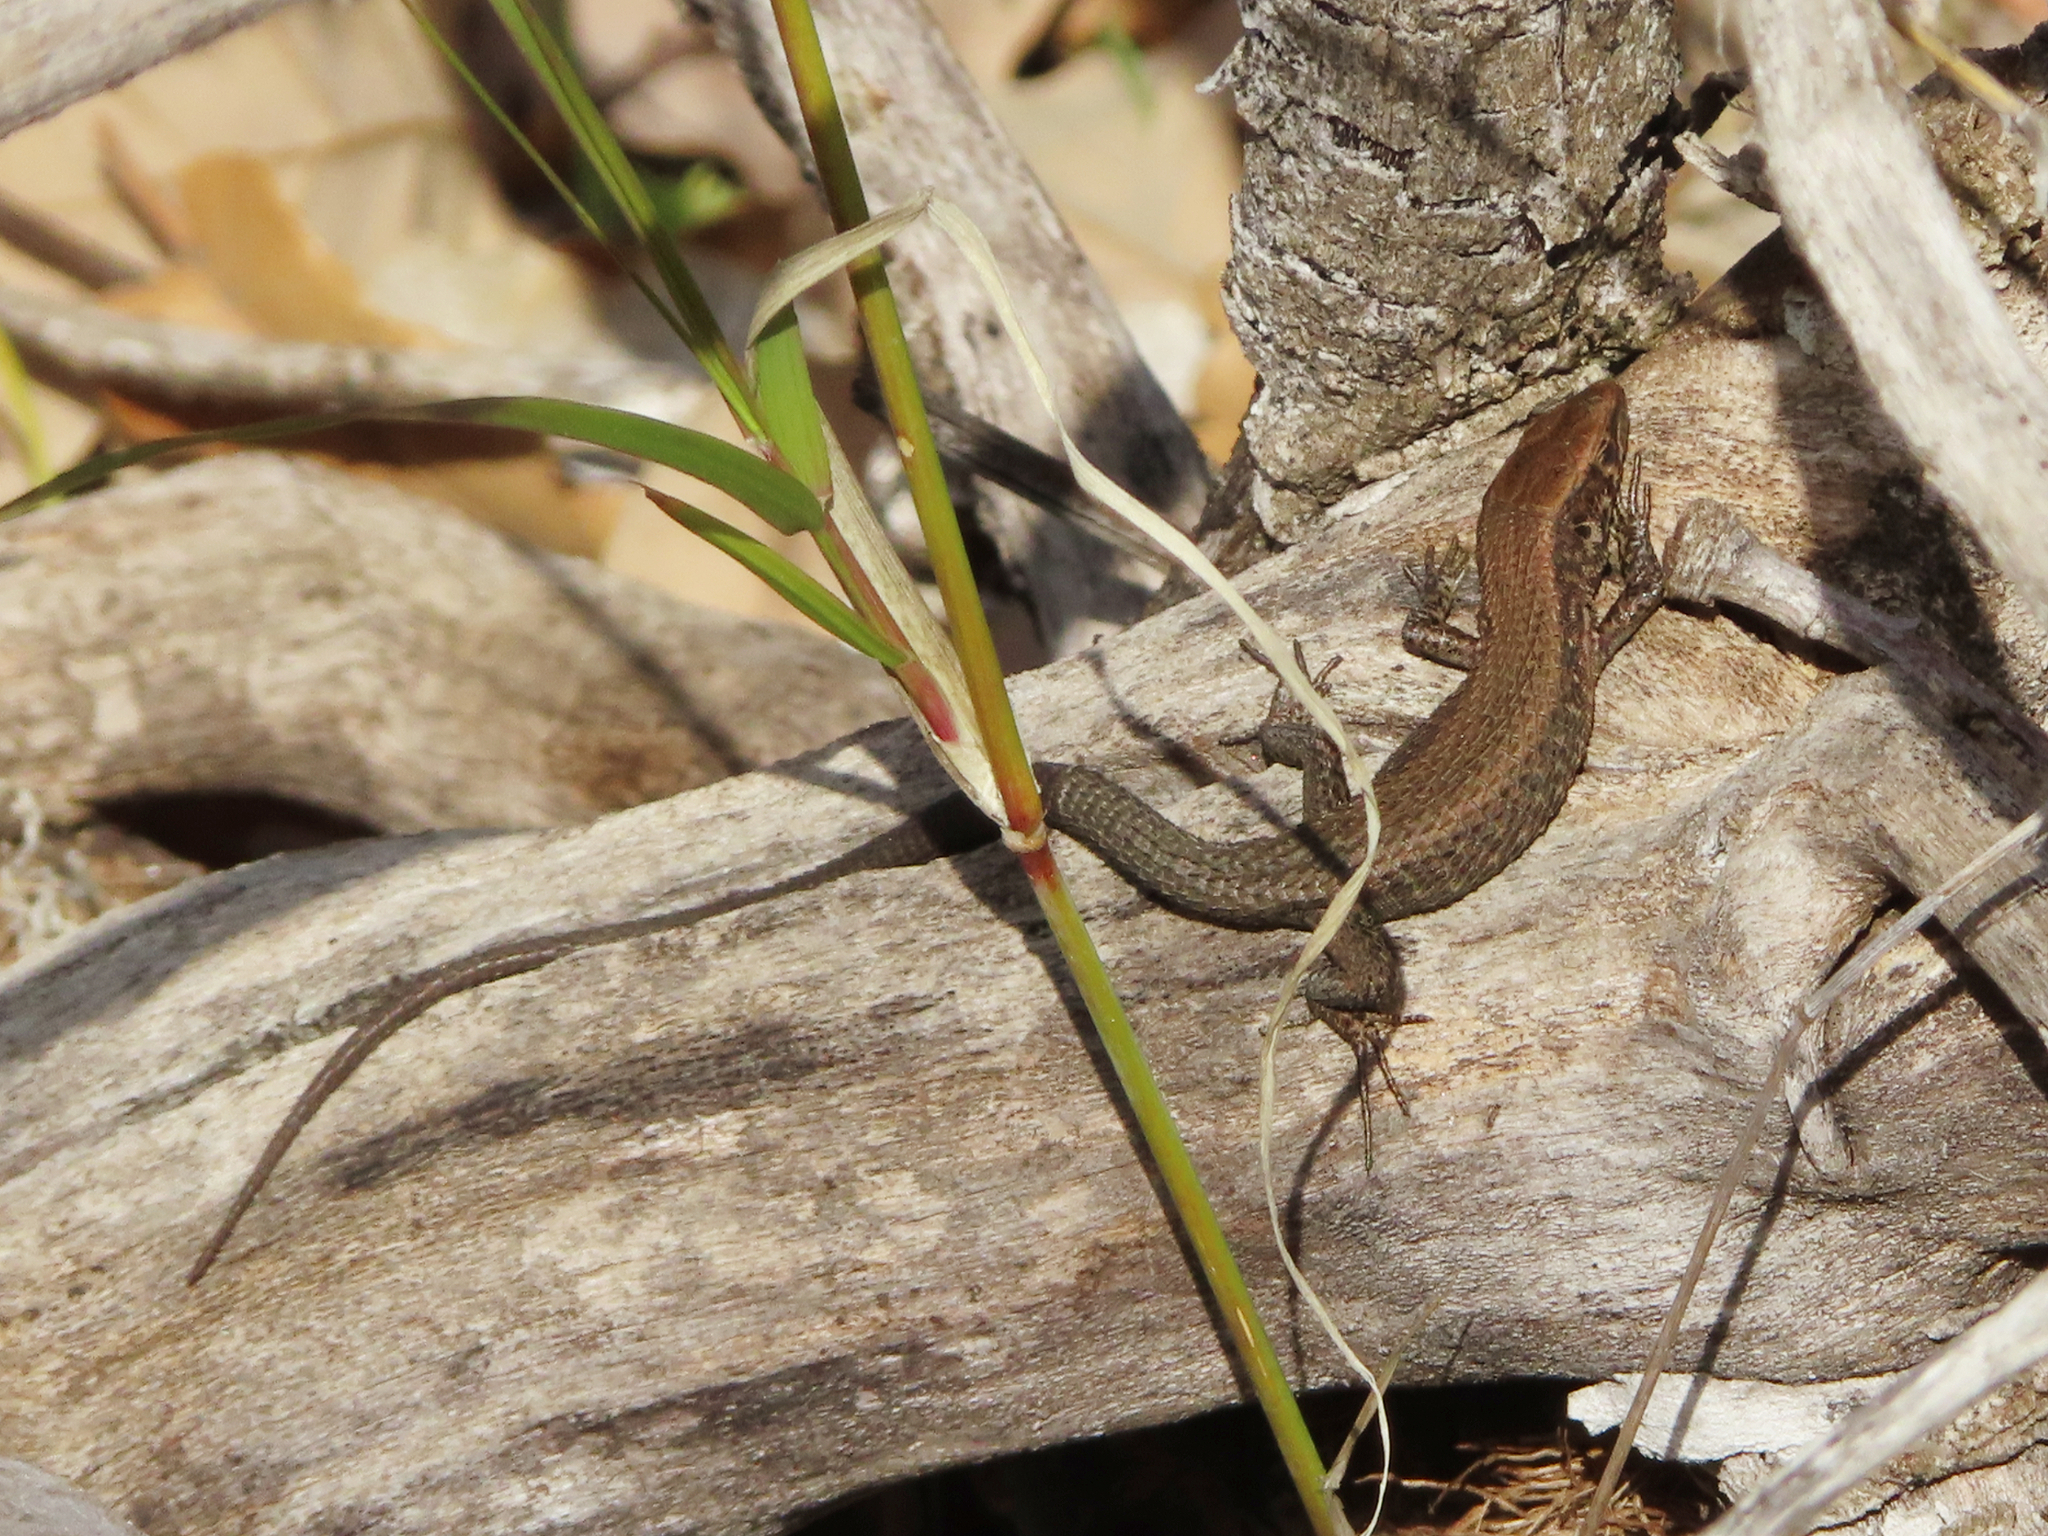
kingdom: Animalia
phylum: Chordata
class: Squamata
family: Lacertidae
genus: Algyroides
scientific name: Algyroides moreoticus
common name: Greek algyroides
